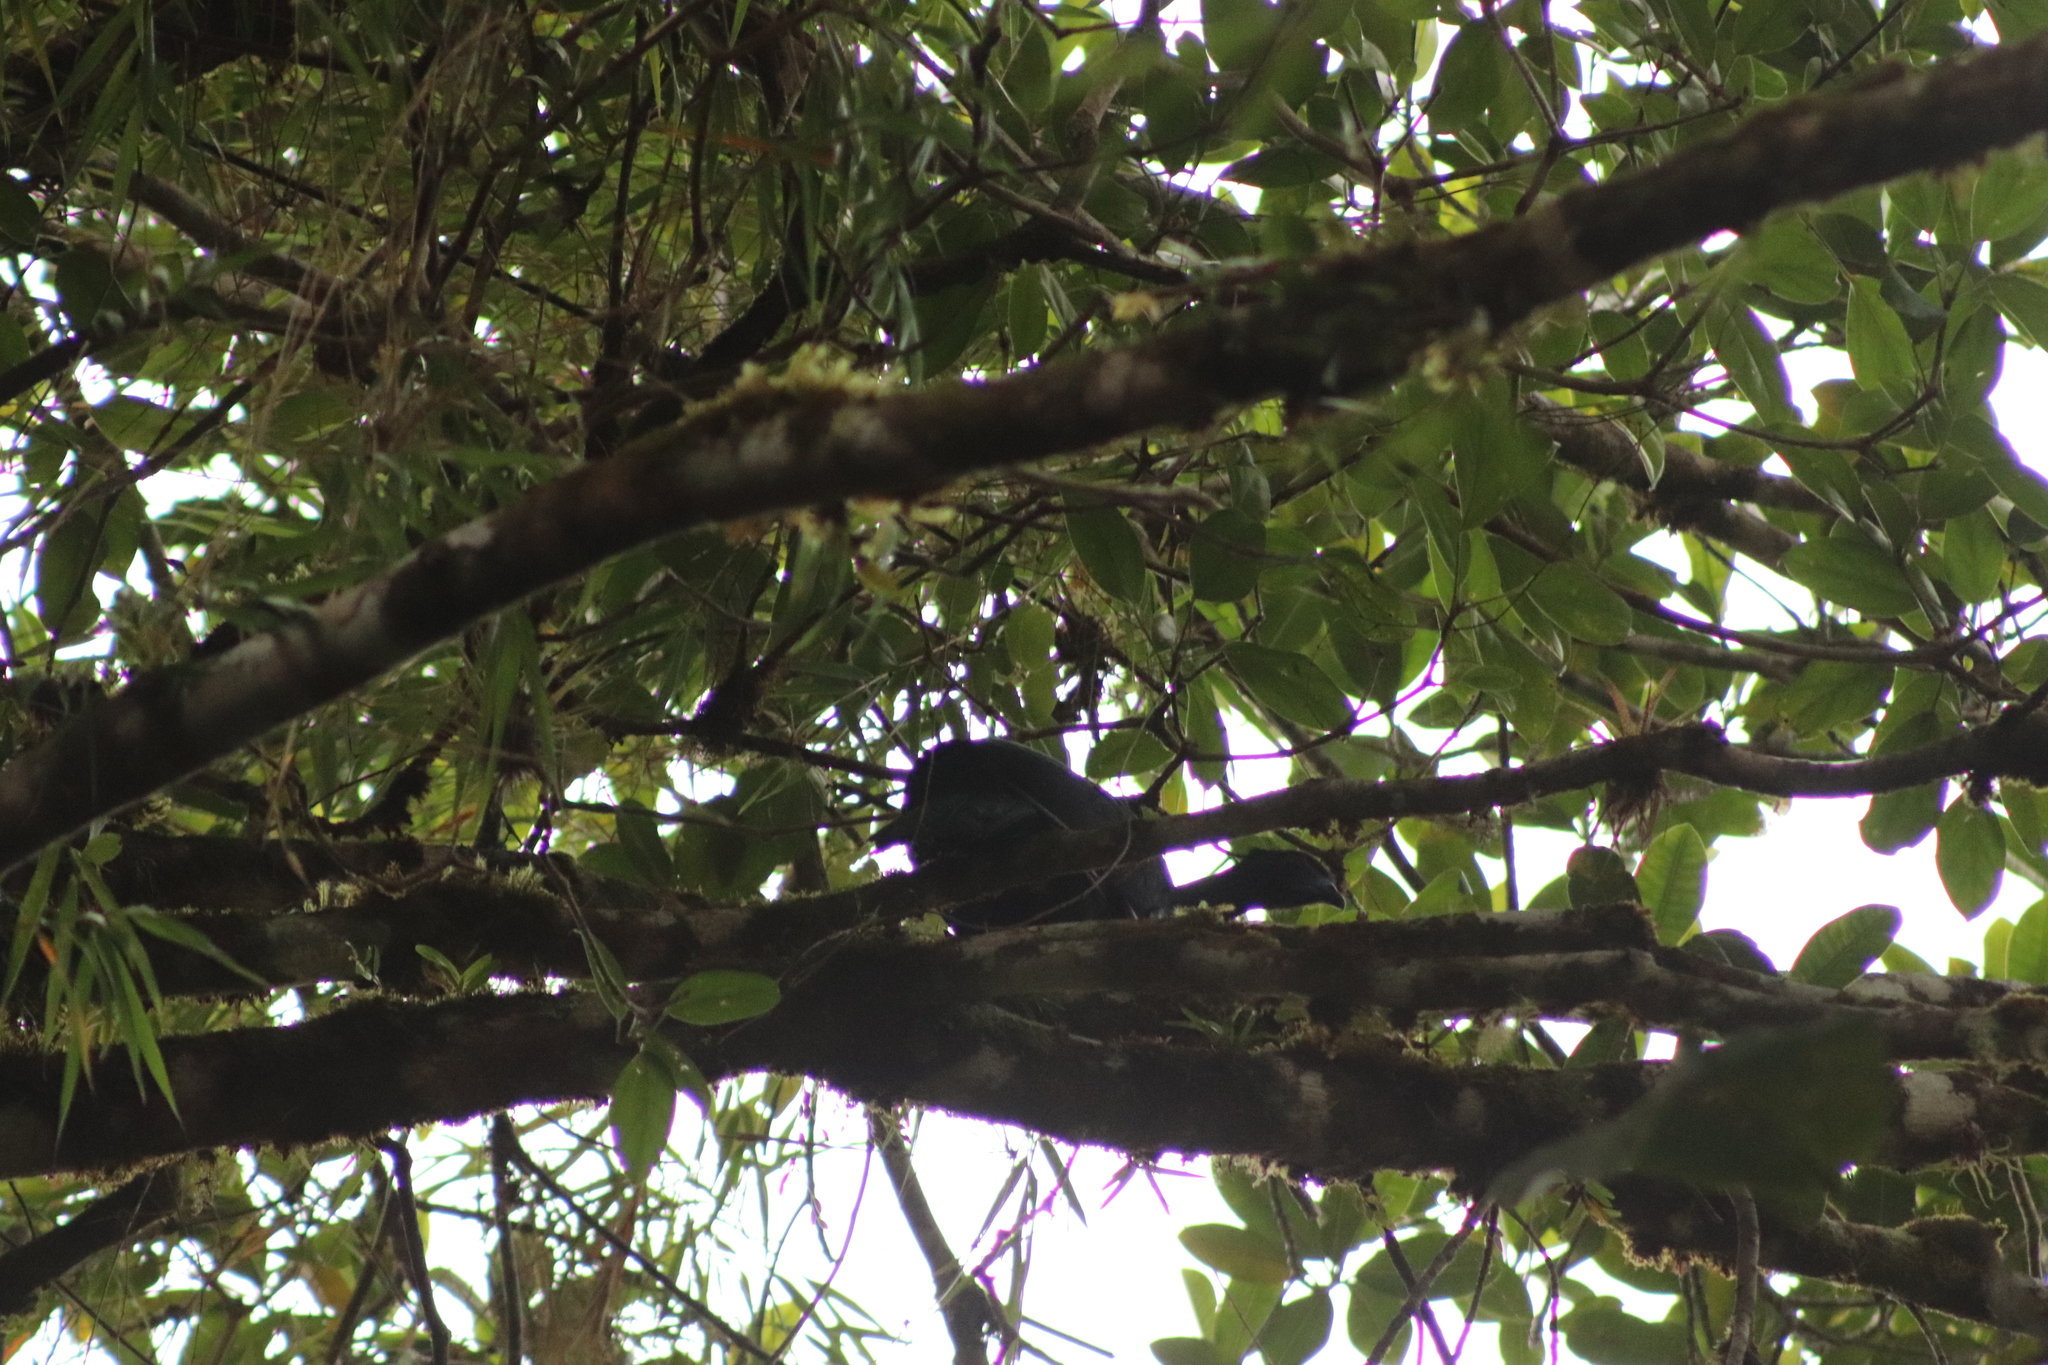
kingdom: Animalia
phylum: Chordata
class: Aves
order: Galliformes
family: Cracidae
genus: Chamaepetes
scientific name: Chamaepetes unicolor
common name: Black guan
